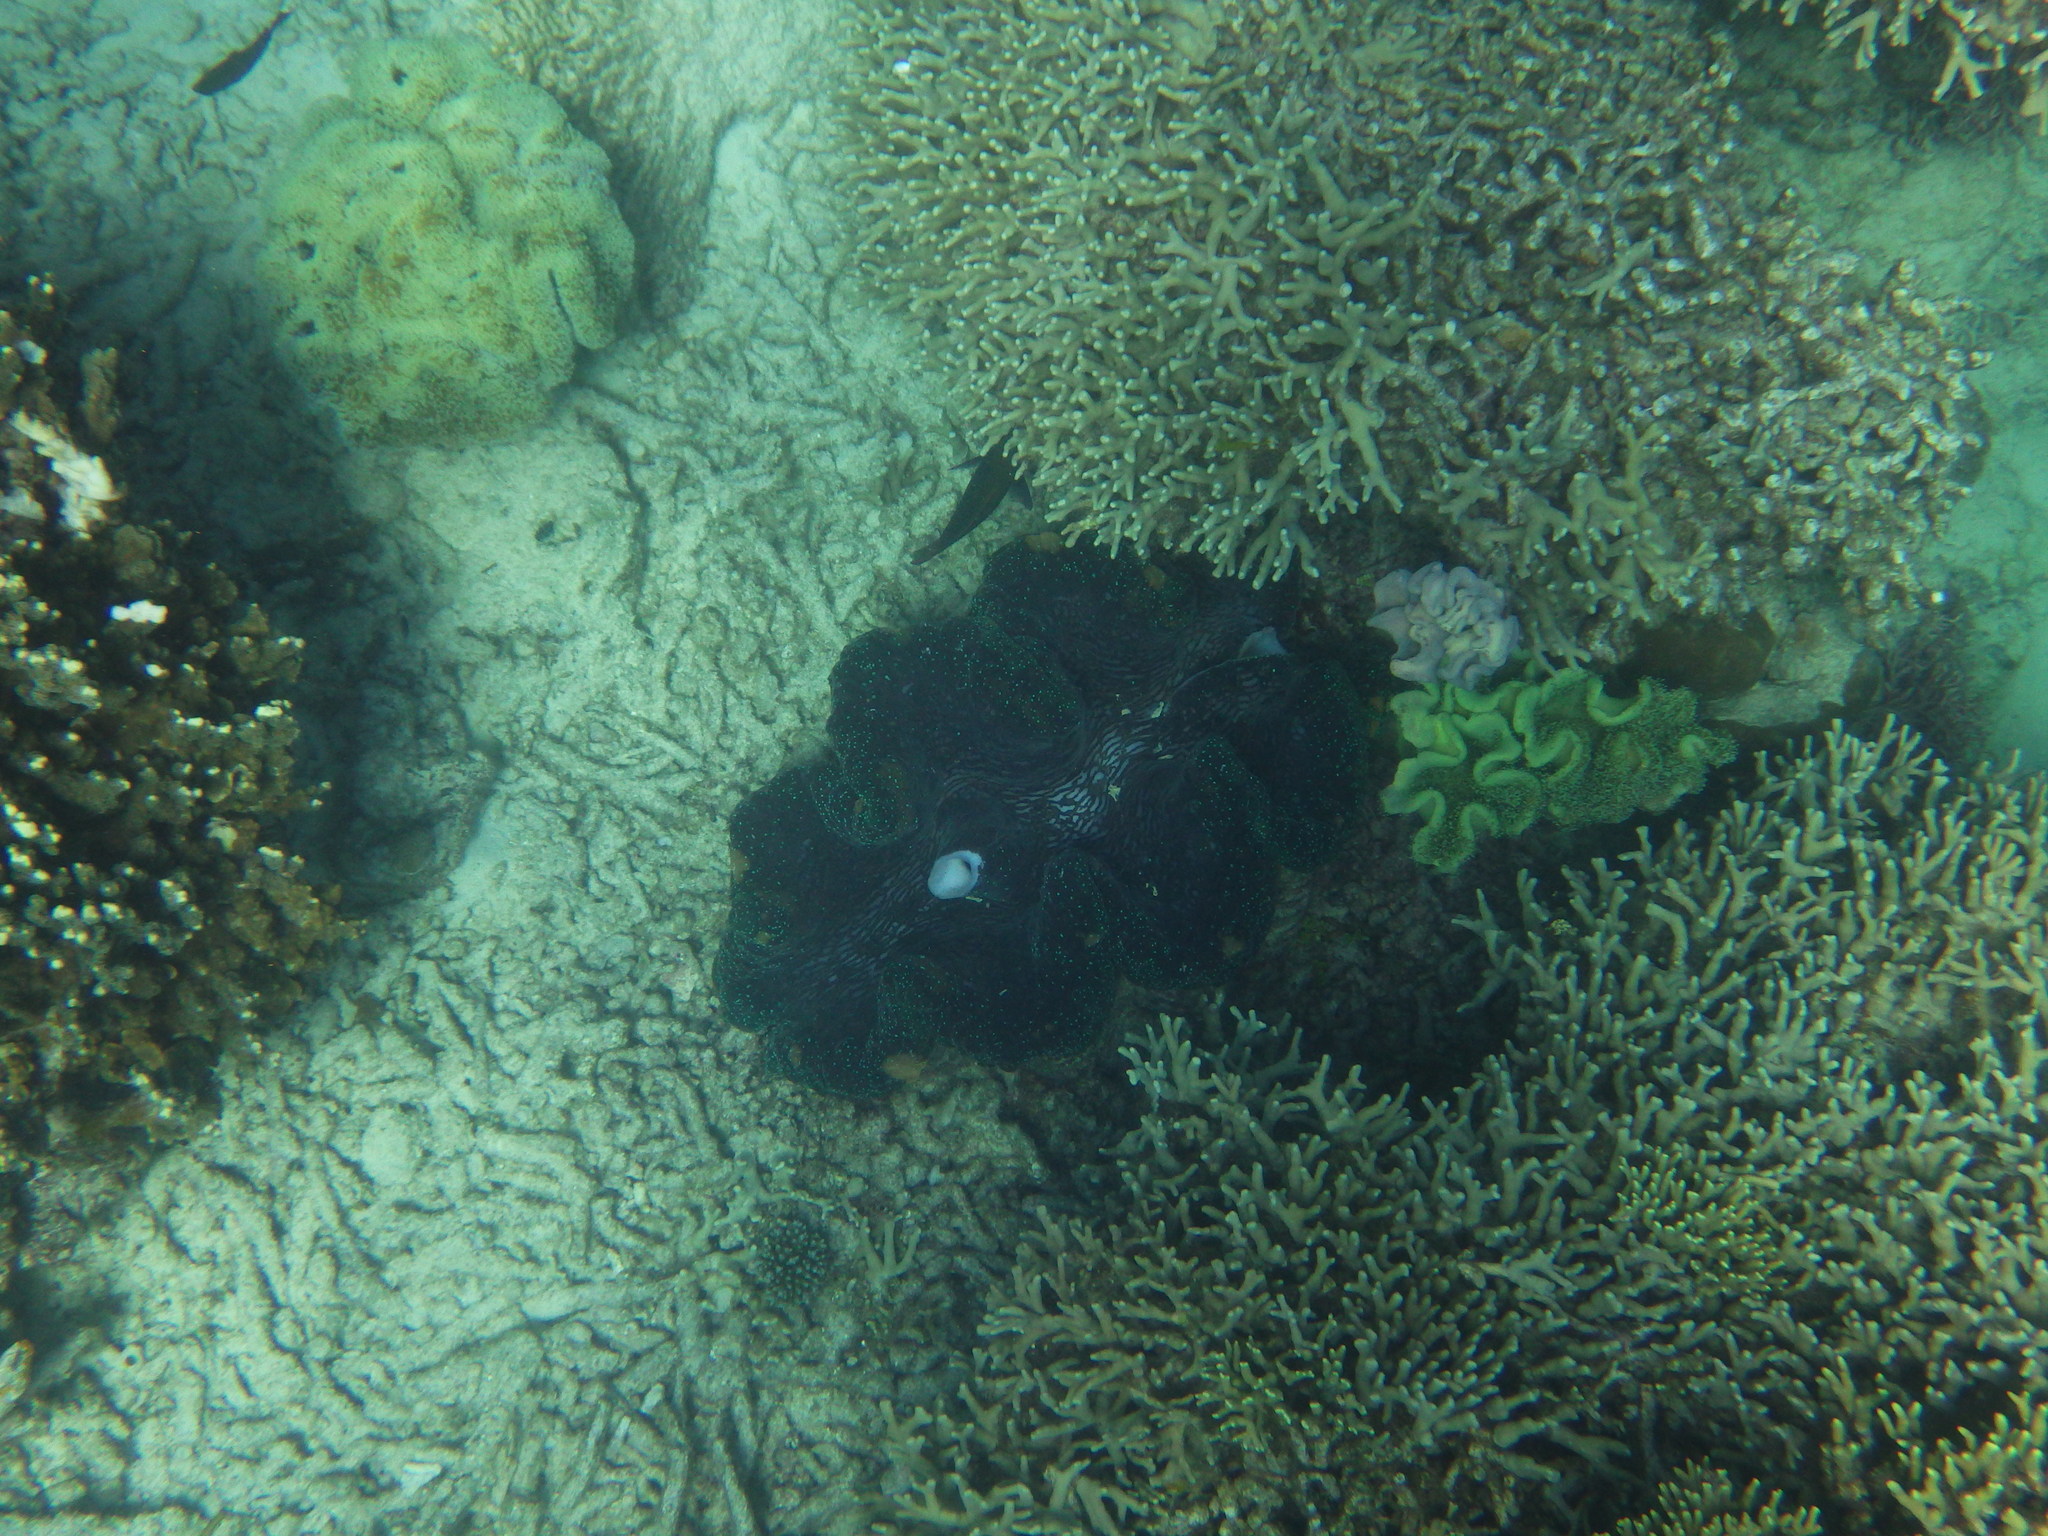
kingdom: Animalia
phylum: Mollusca
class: Bivalvia
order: Cardiida
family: Cardiidae
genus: Tridacna
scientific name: Tridacna gigas
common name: Giant clam
